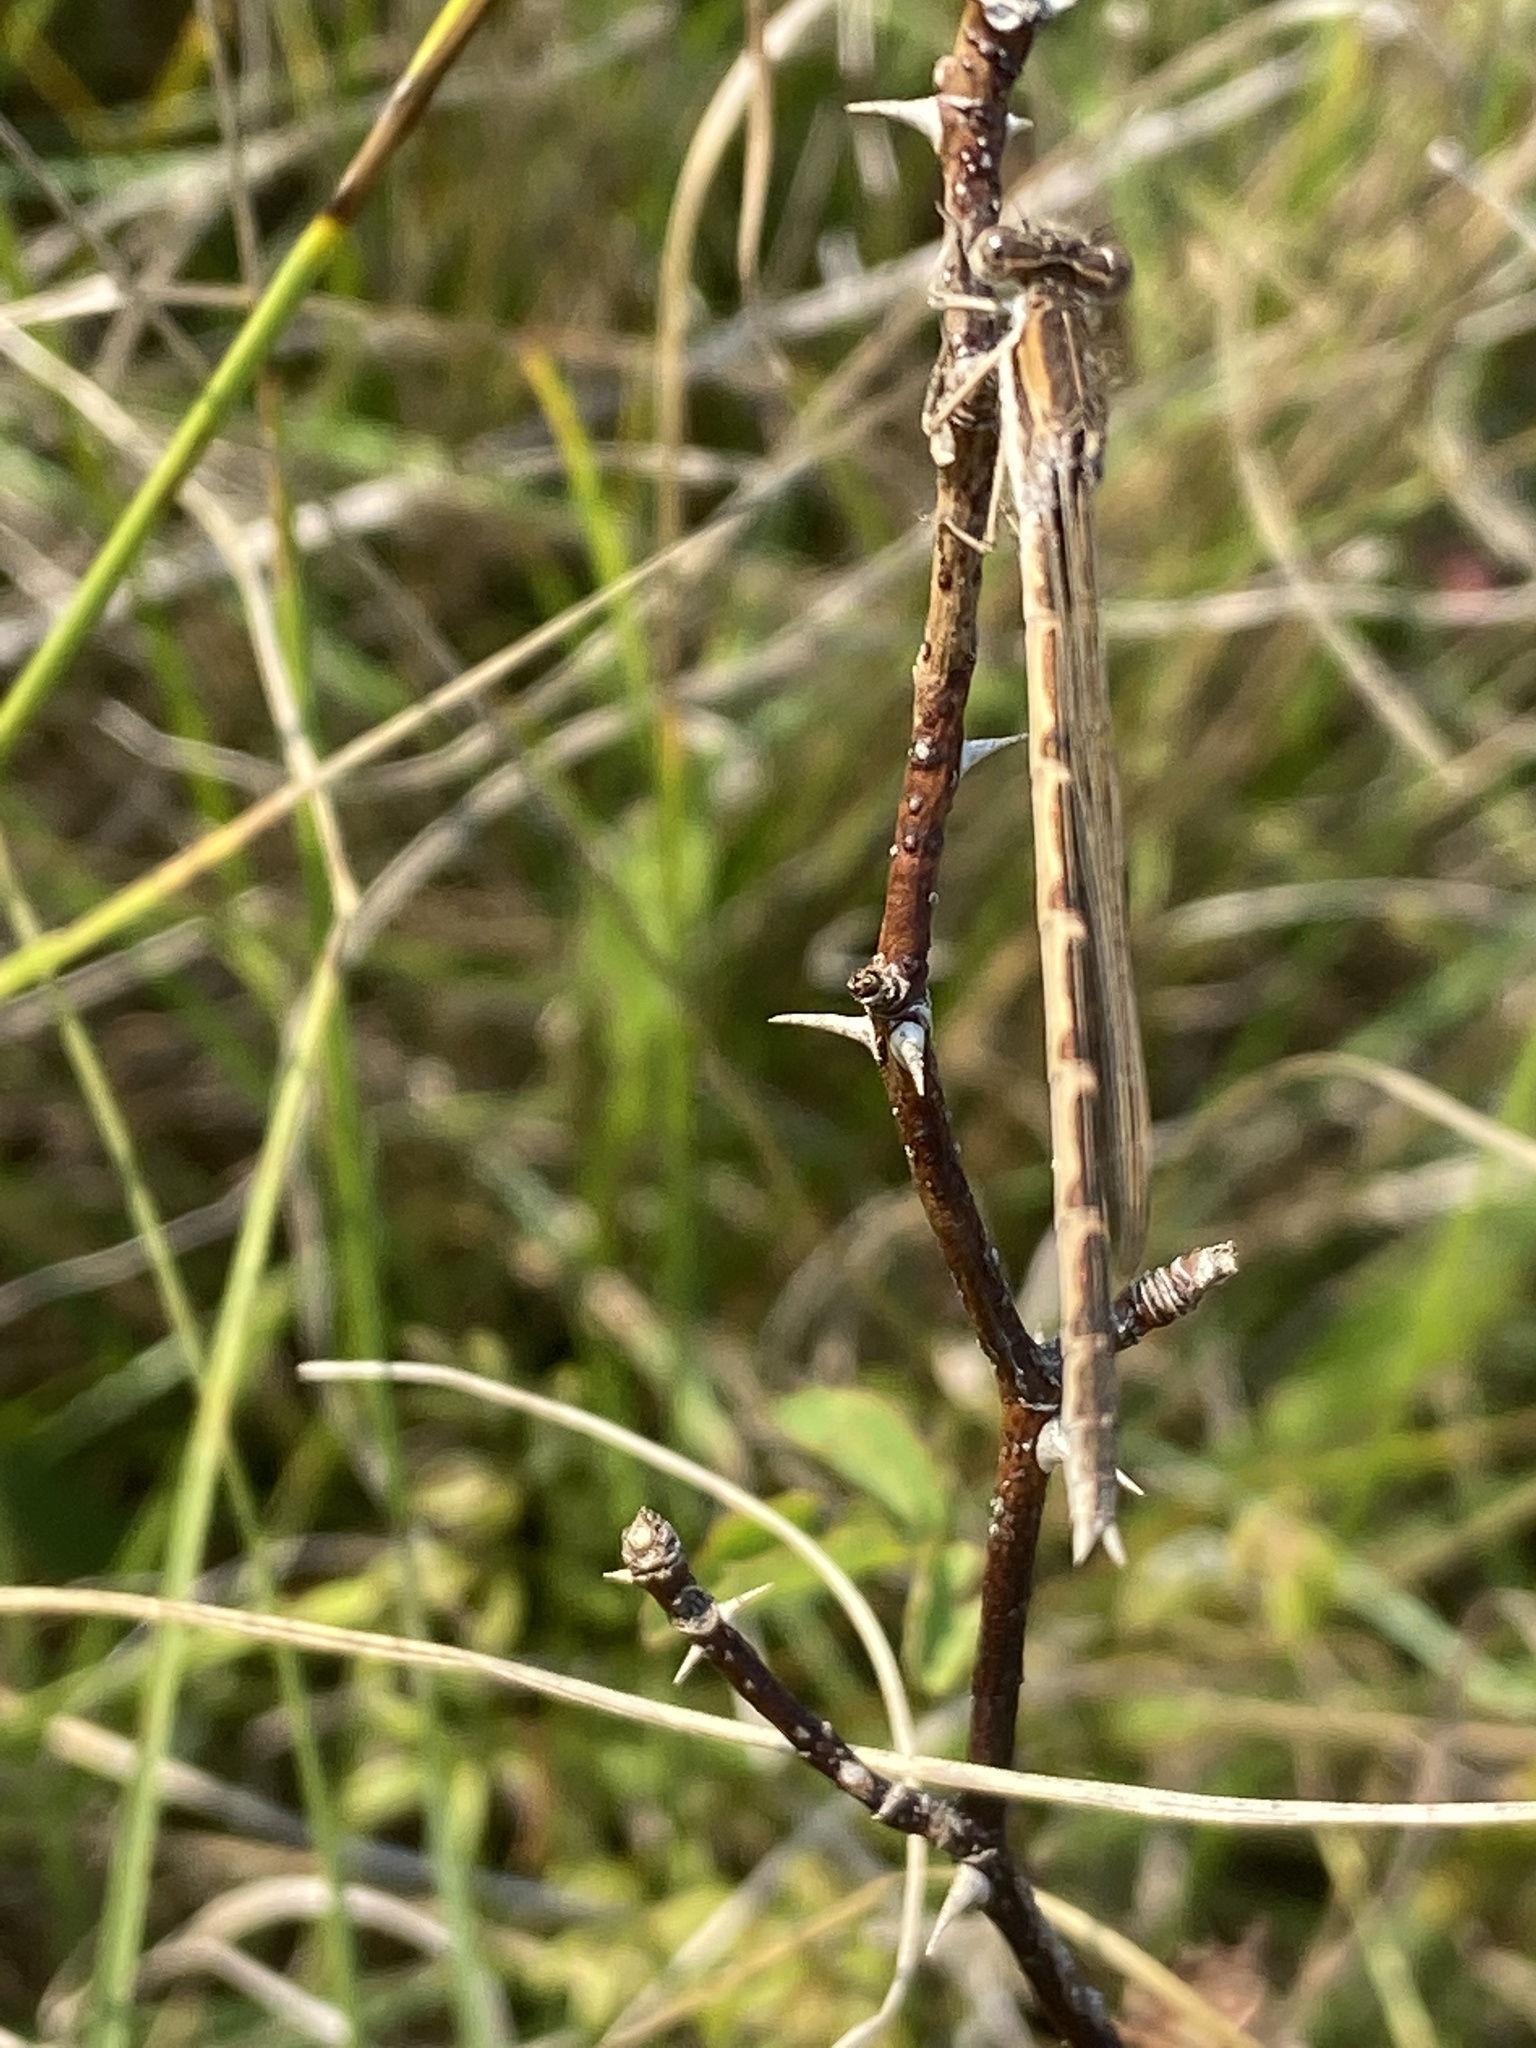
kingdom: Animalia
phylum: Arthropoda
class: Insecta
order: Odonata
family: Lestidae
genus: Sympecma
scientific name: Sympecma fusca
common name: Common winter damsel
